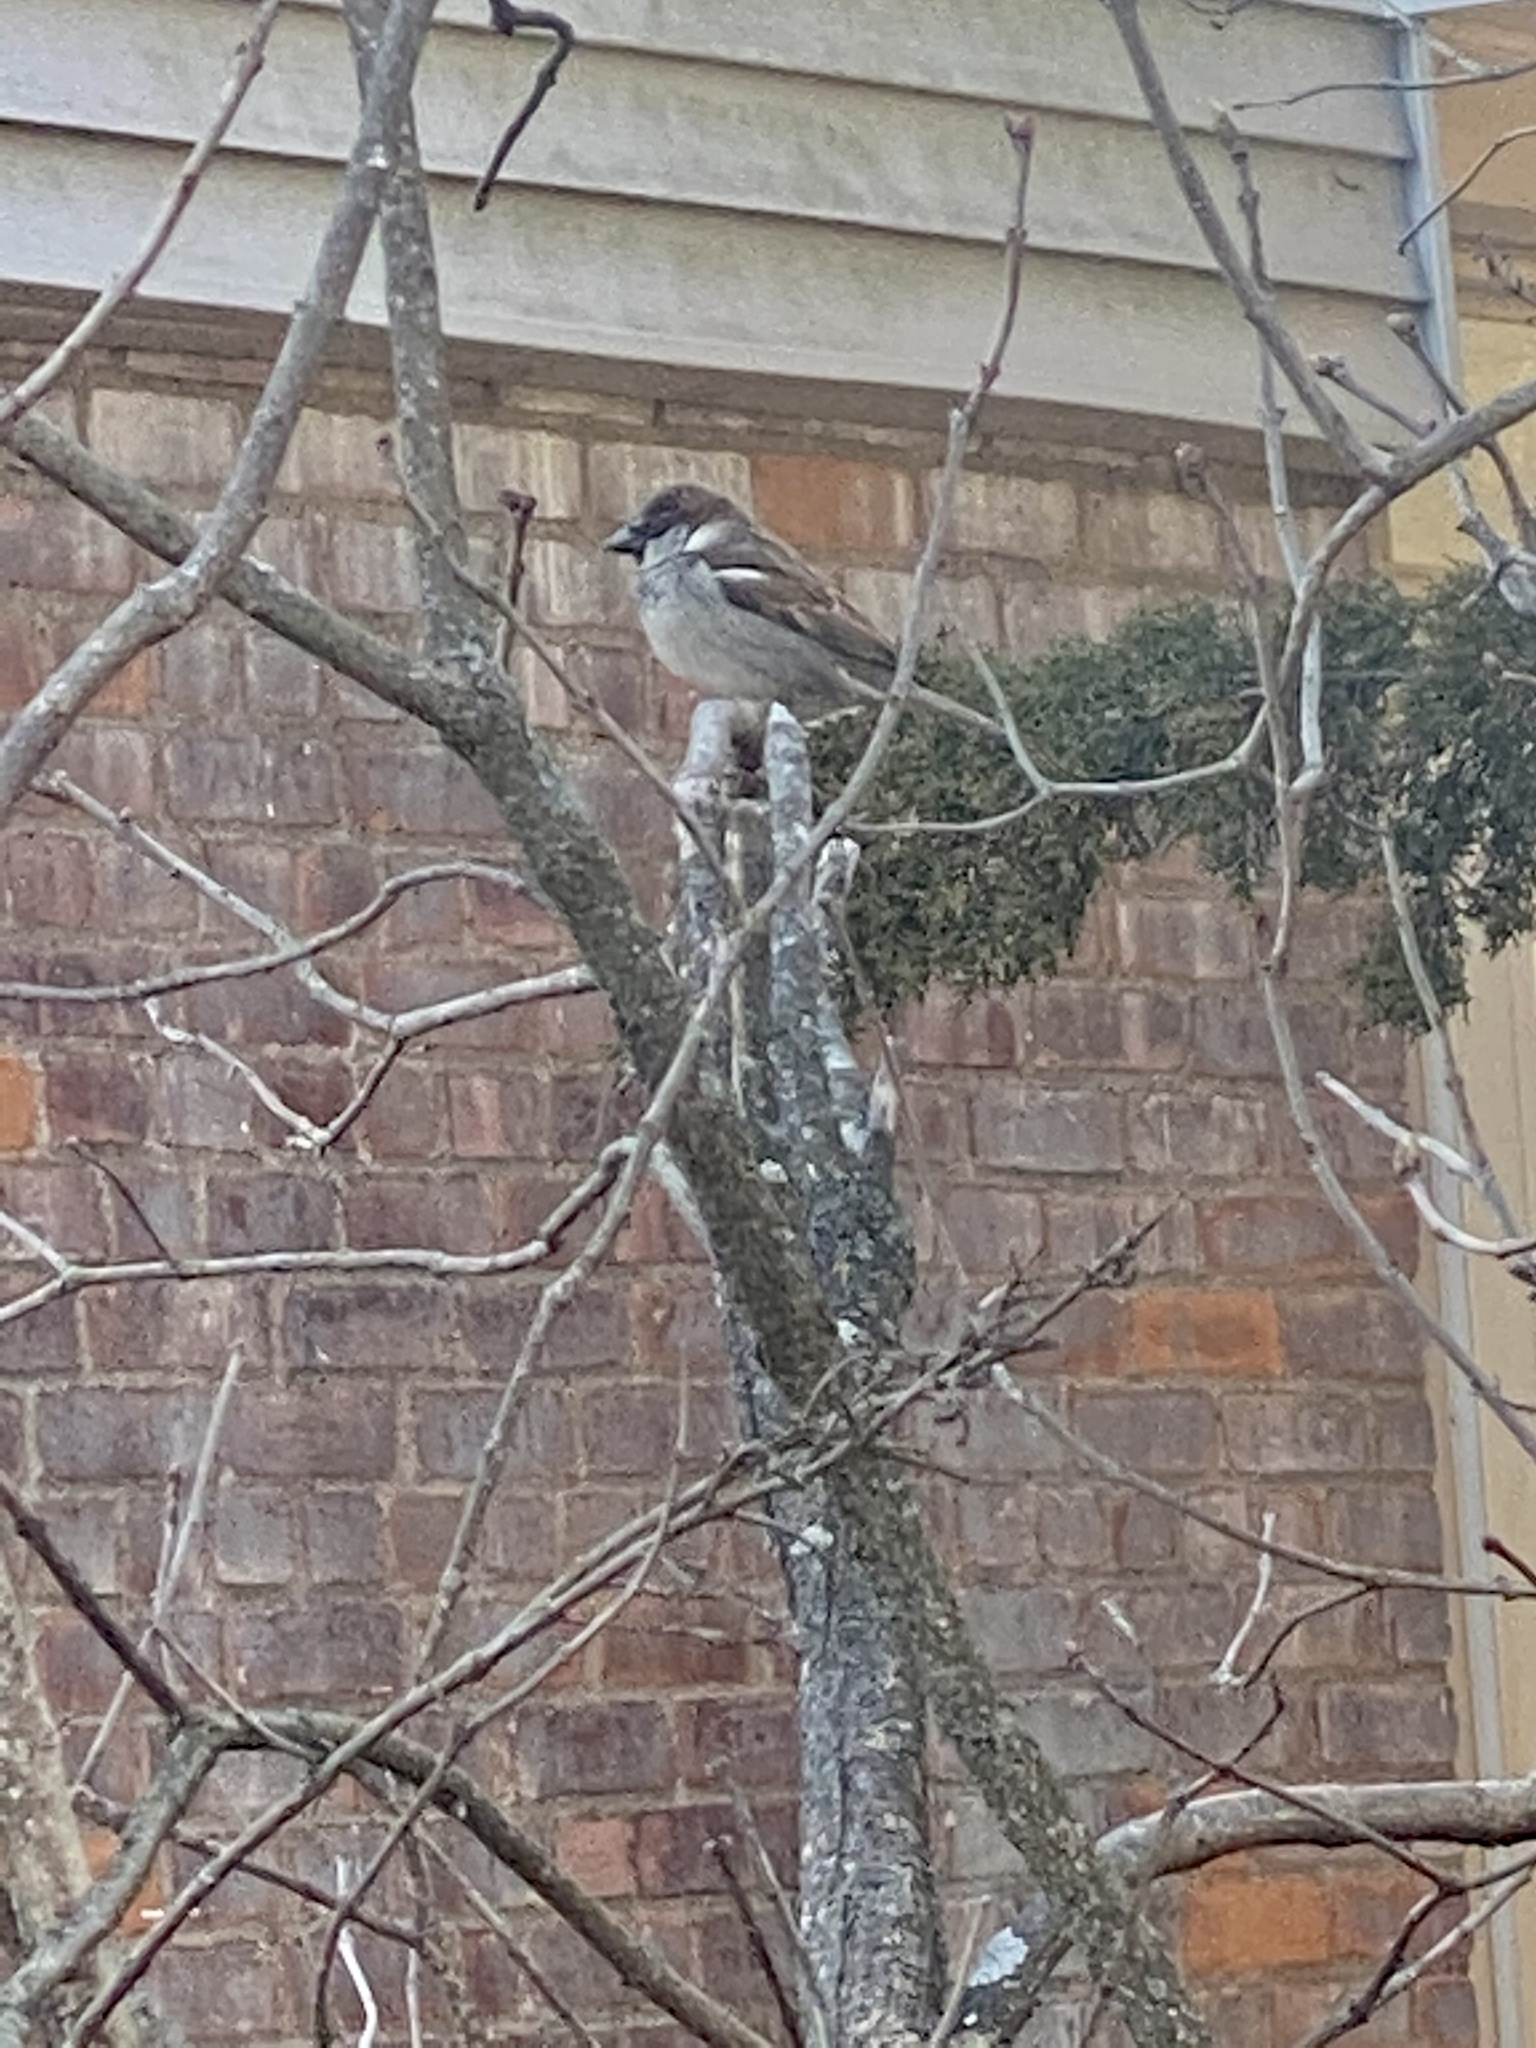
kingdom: Animalia
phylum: Chordata
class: Aves
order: Passeriformes
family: Passeridae
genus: Passer
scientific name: Passer domesticus
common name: House sparrow
